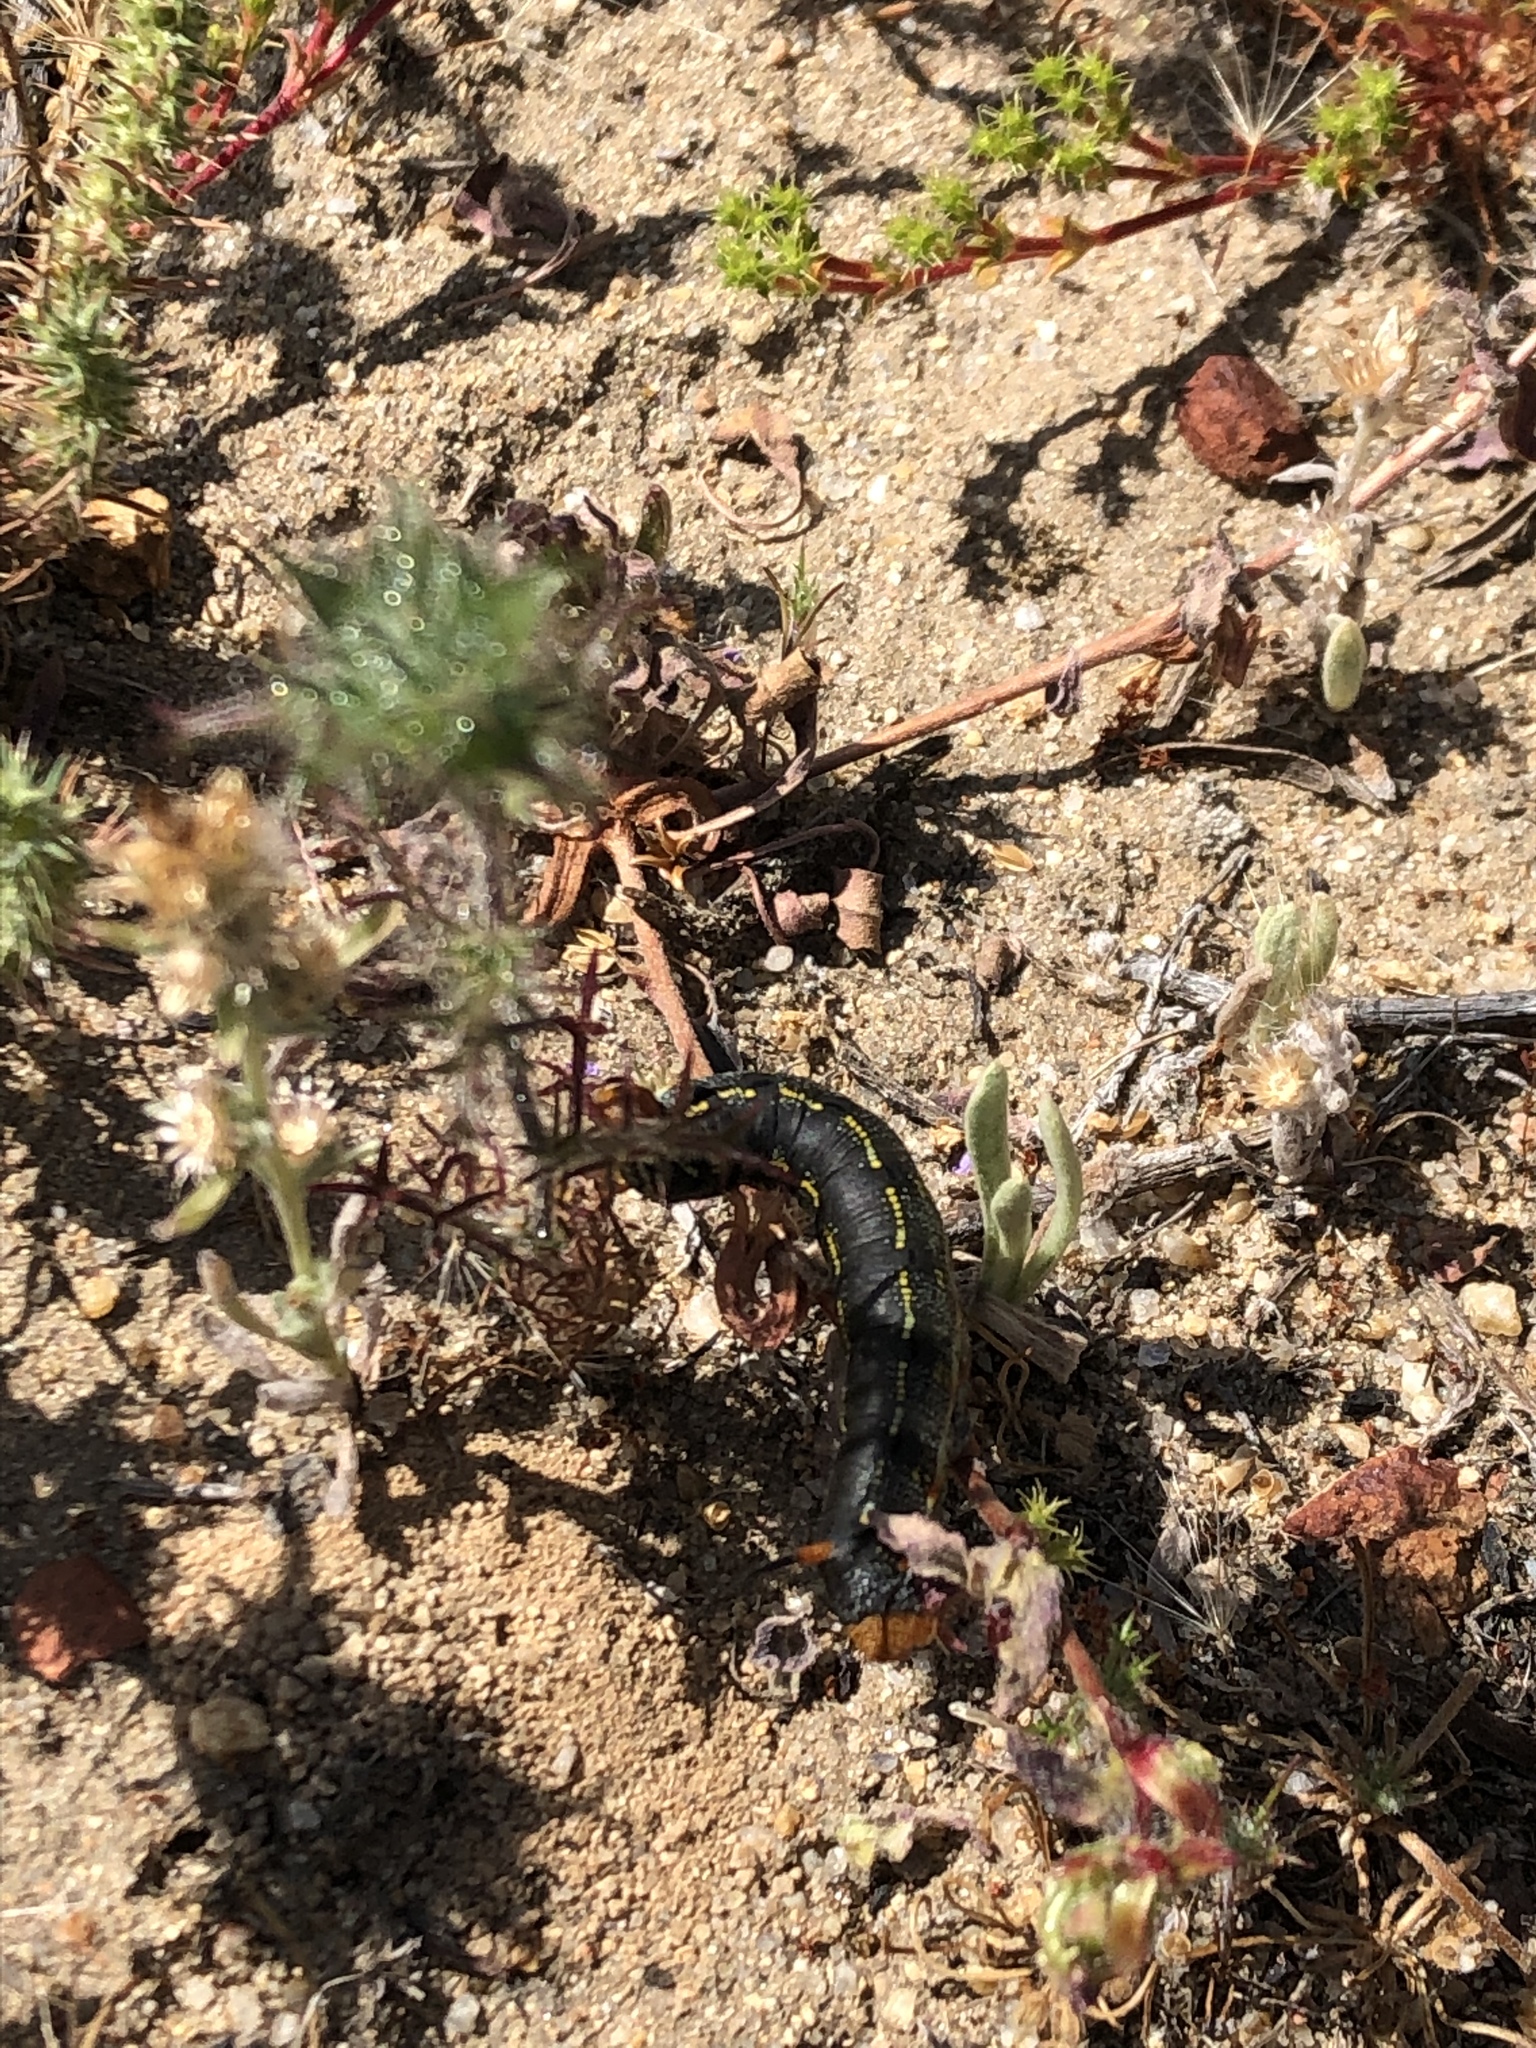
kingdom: Animalia
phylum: Arthropoda
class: Insecta
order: Lepidoptera
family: Sphingidae
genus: Hyles
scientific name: Hyles lineata
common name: White-lined sphinx
